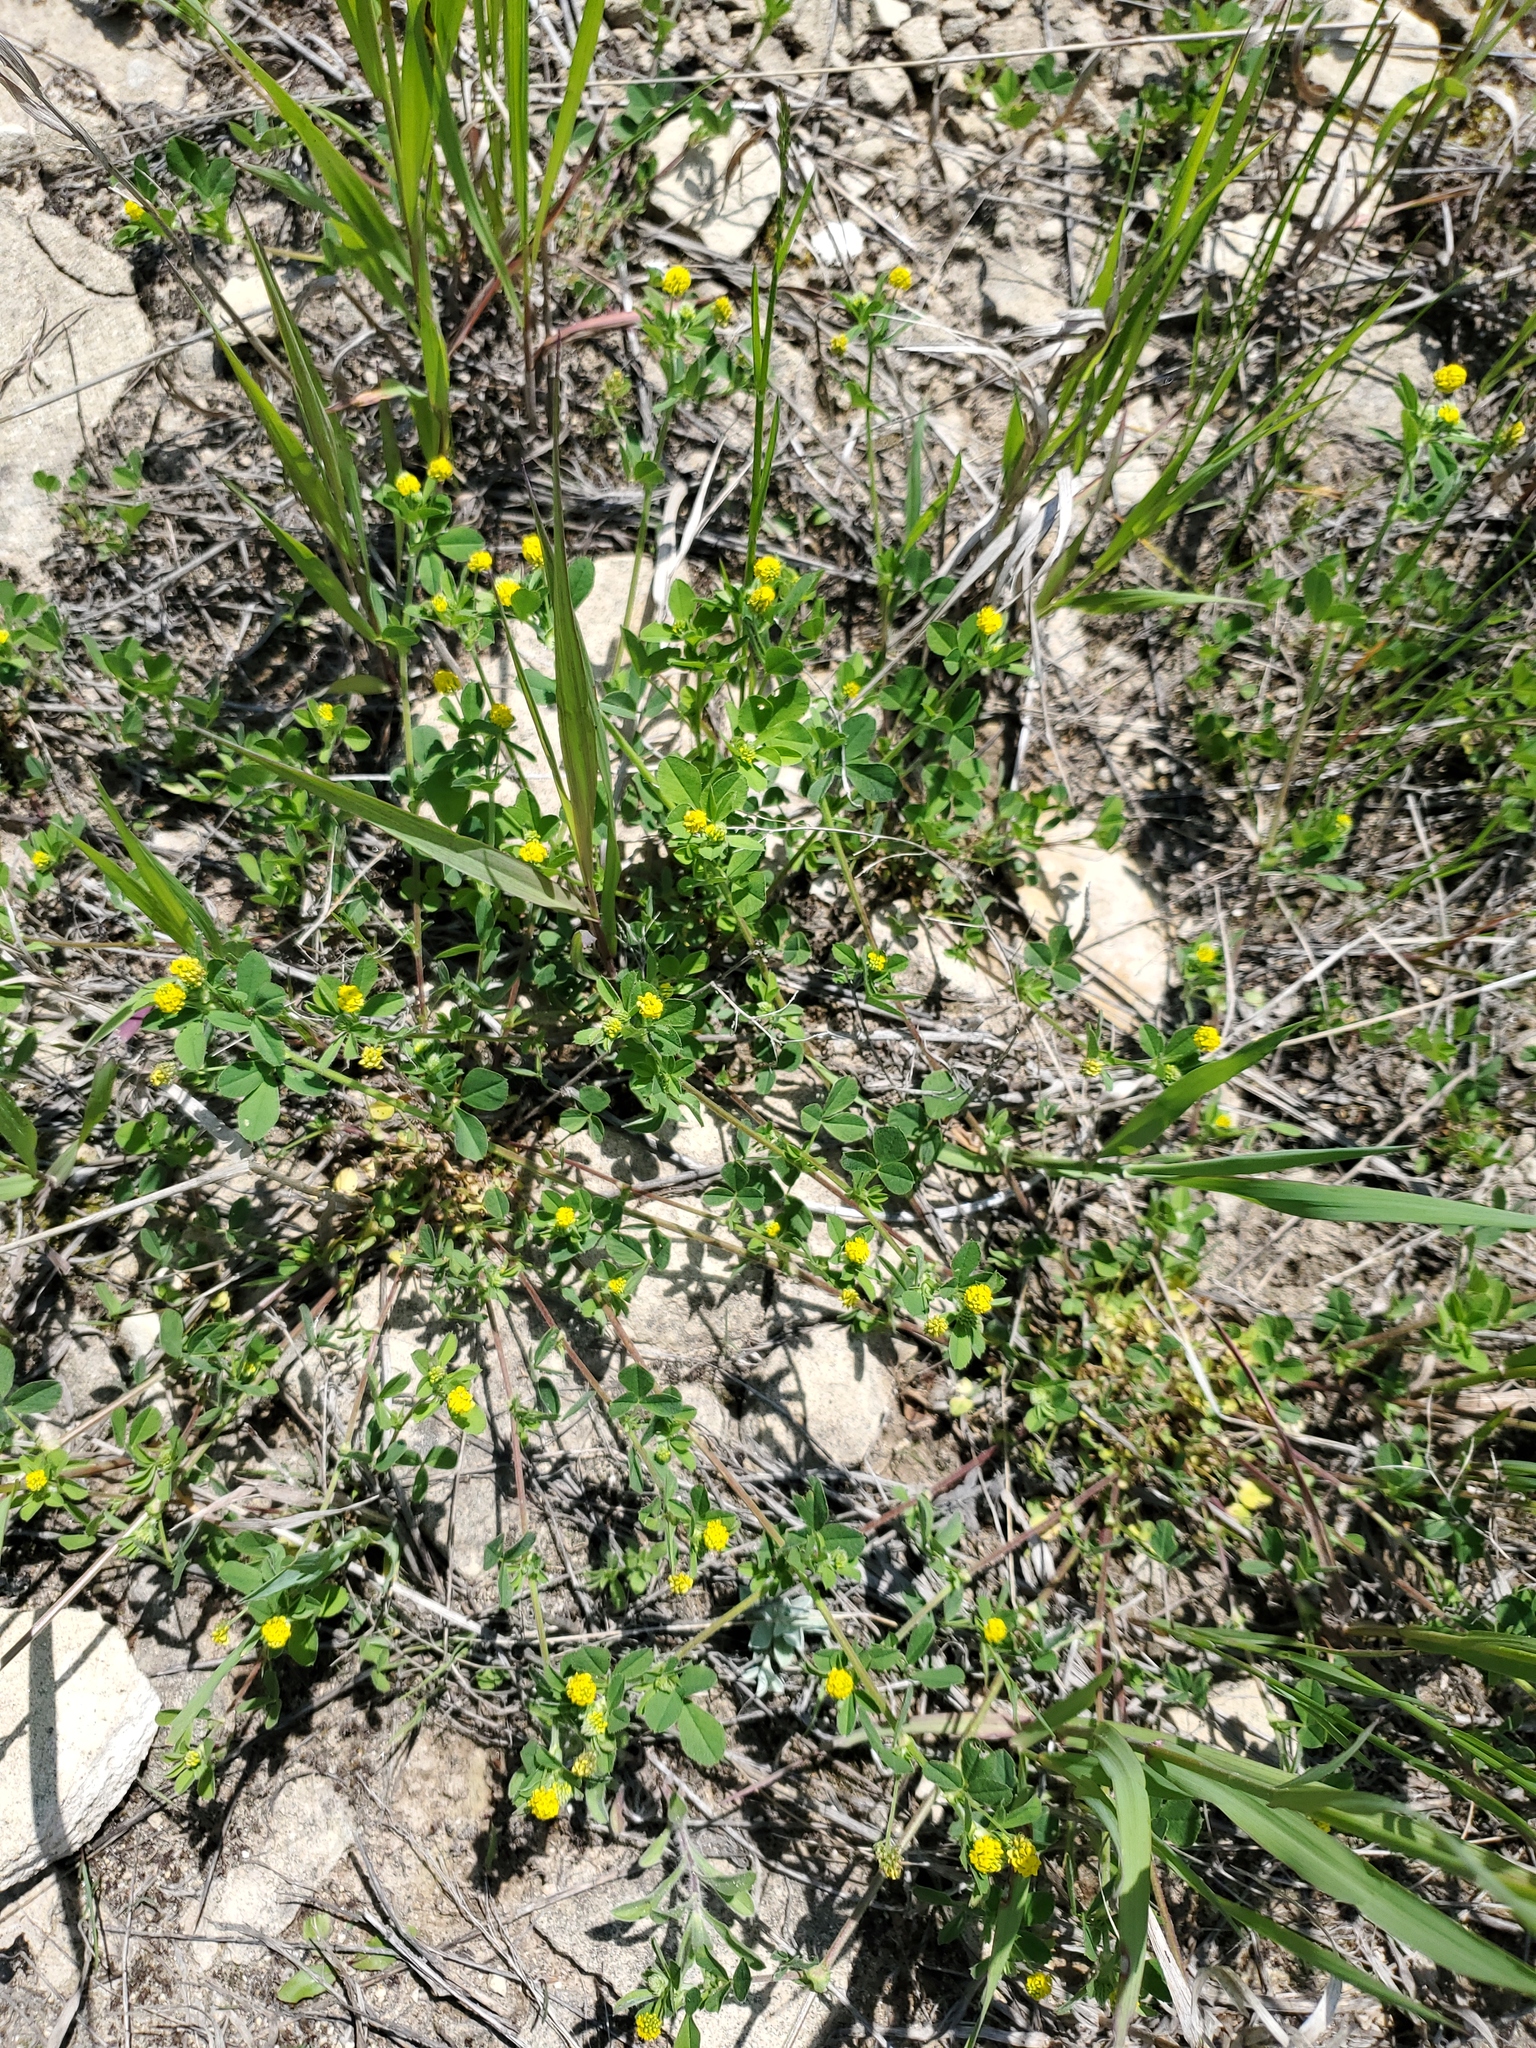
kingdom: Plantae
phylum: Tracheophyta
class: Magnoliopsida
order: Fabales
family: Fabaceae
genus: Medicago
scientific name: Medicago lupulina
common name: Black medick
